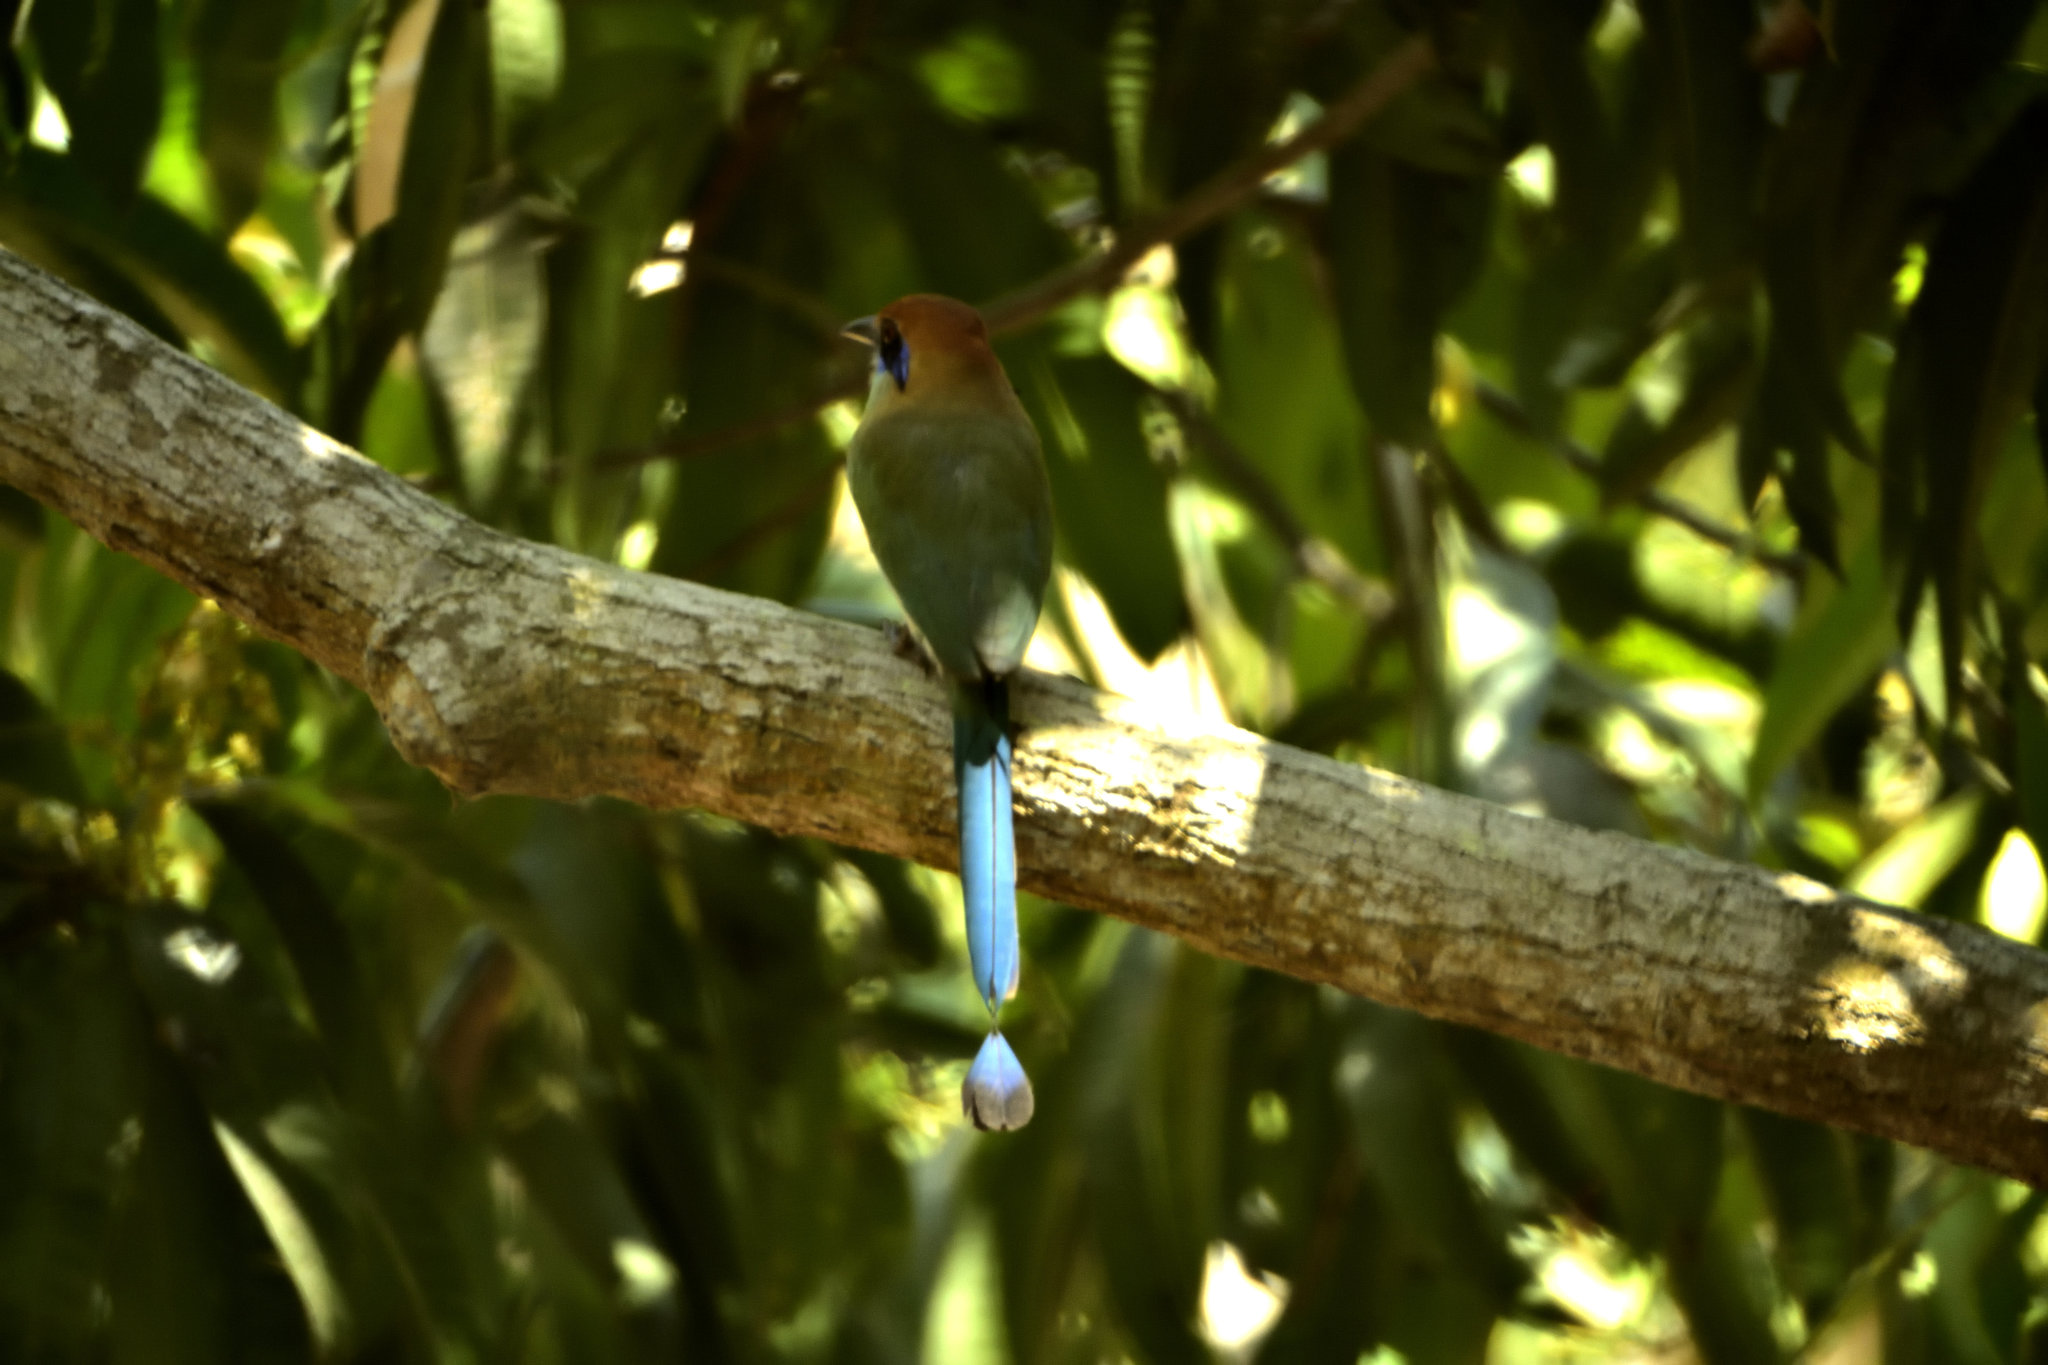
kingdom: Animalia
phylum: Chordata
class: Aves
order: Coraciiformes
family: Momotidae
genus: Momotus
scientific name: Momotus mexicanus
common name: Russet-crowned motmot
